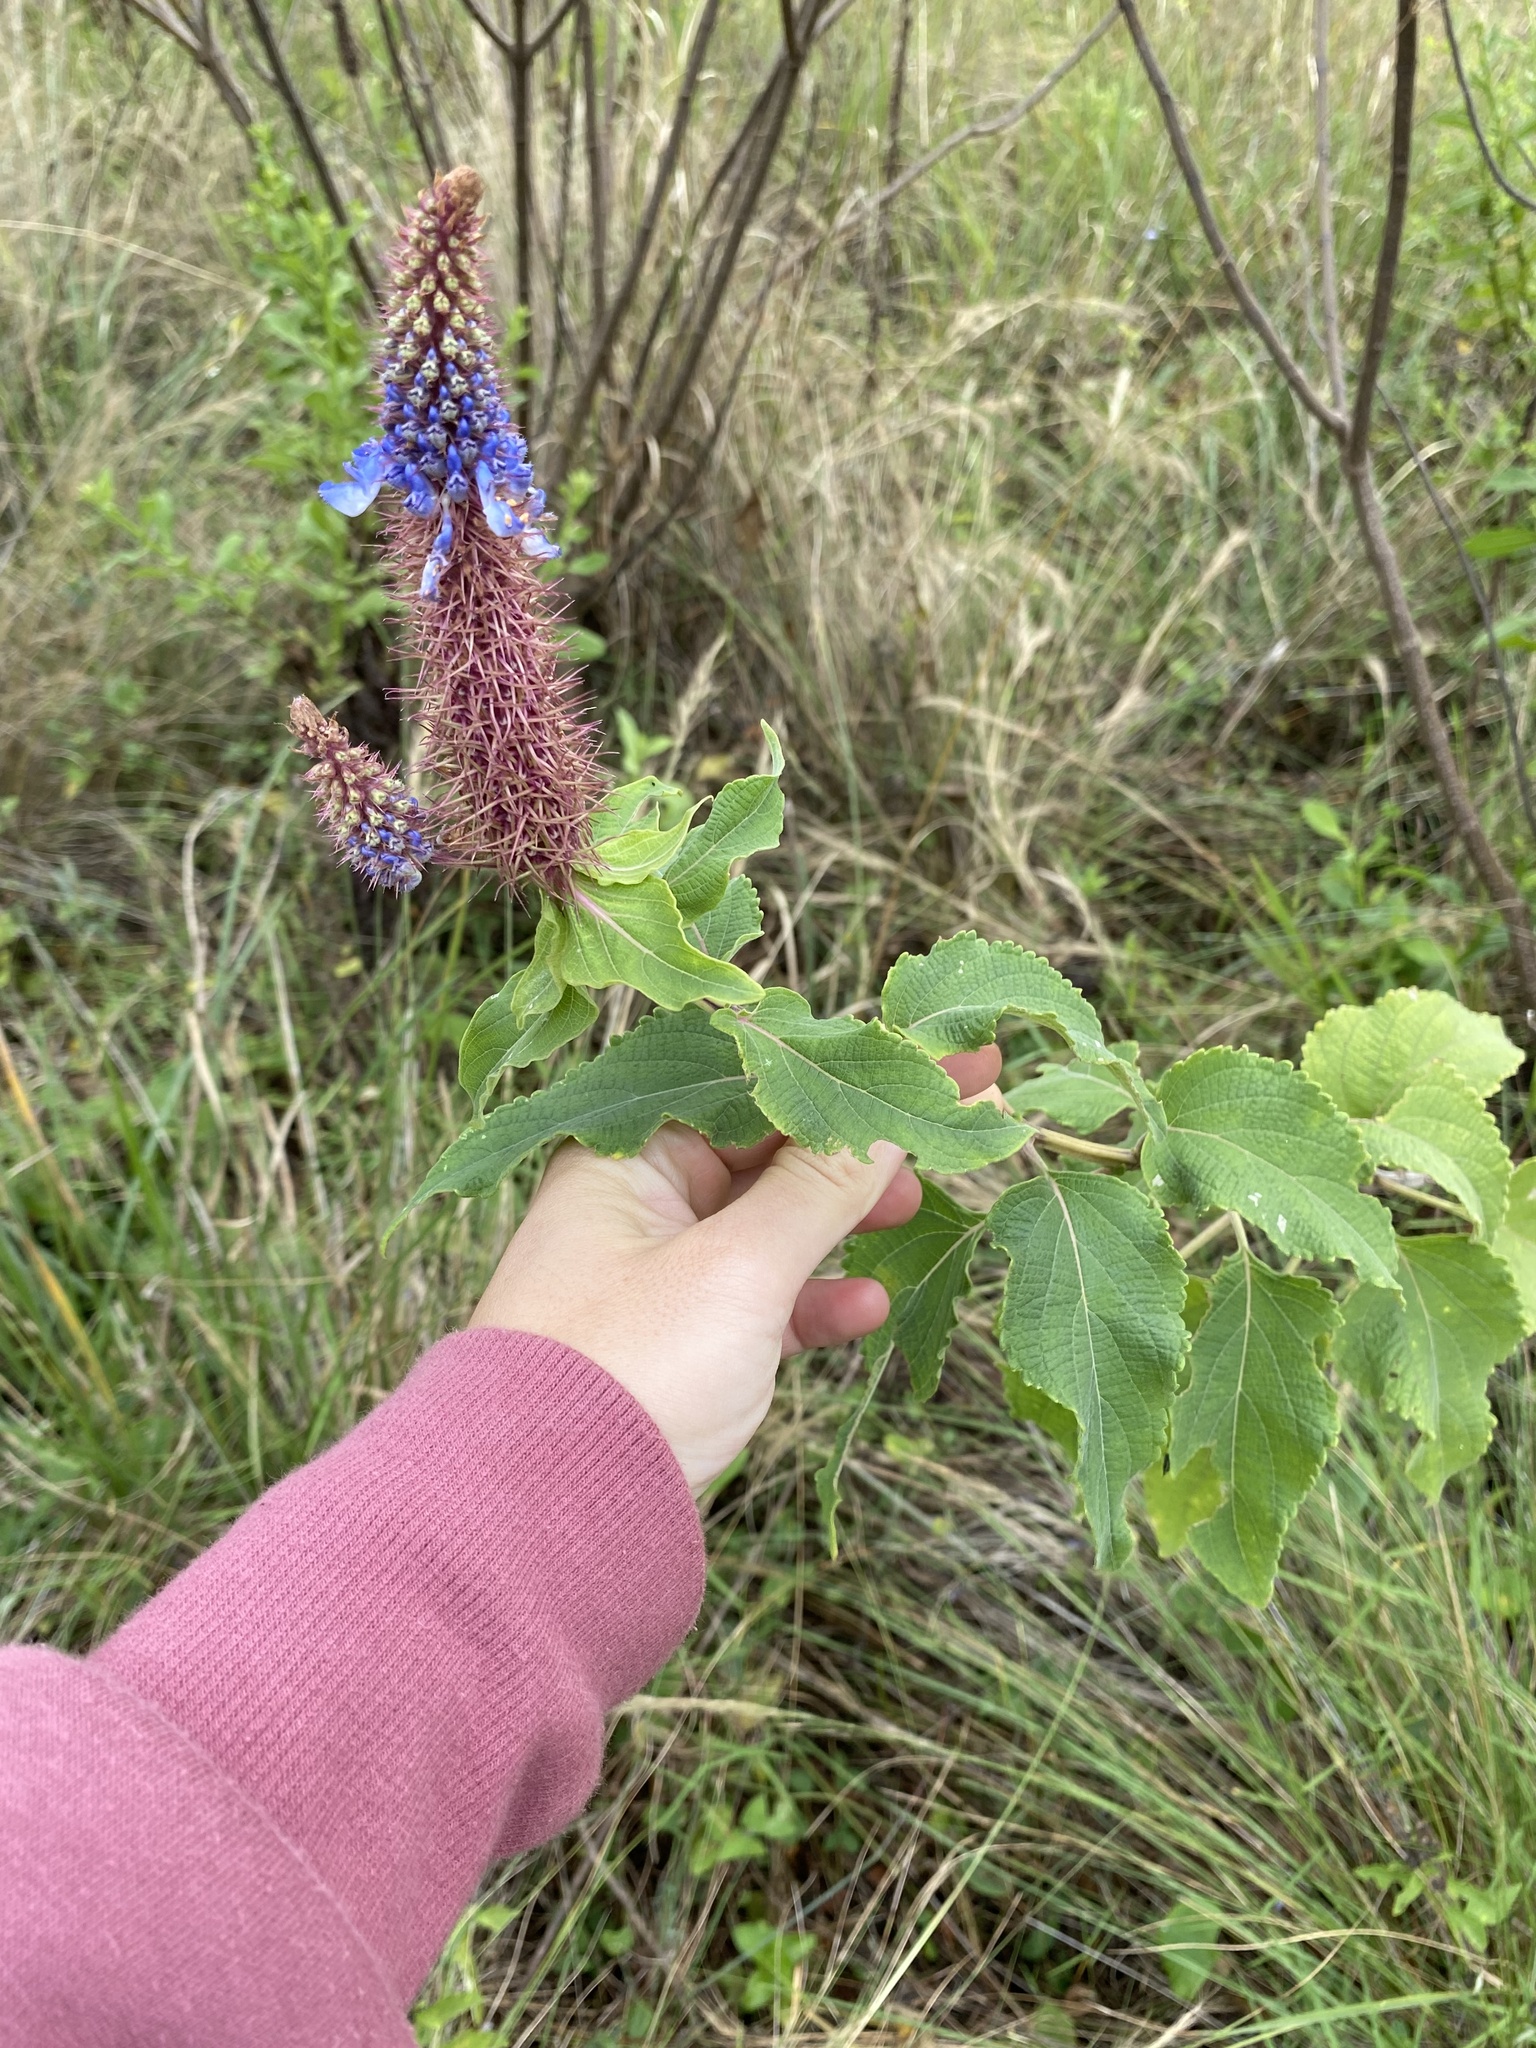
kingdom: Plantae
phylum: Tracheophyta
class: Magnoliopsida
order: Lamiales
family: Lamiaceae
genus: Coleus
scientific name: Coleus livingstonei
